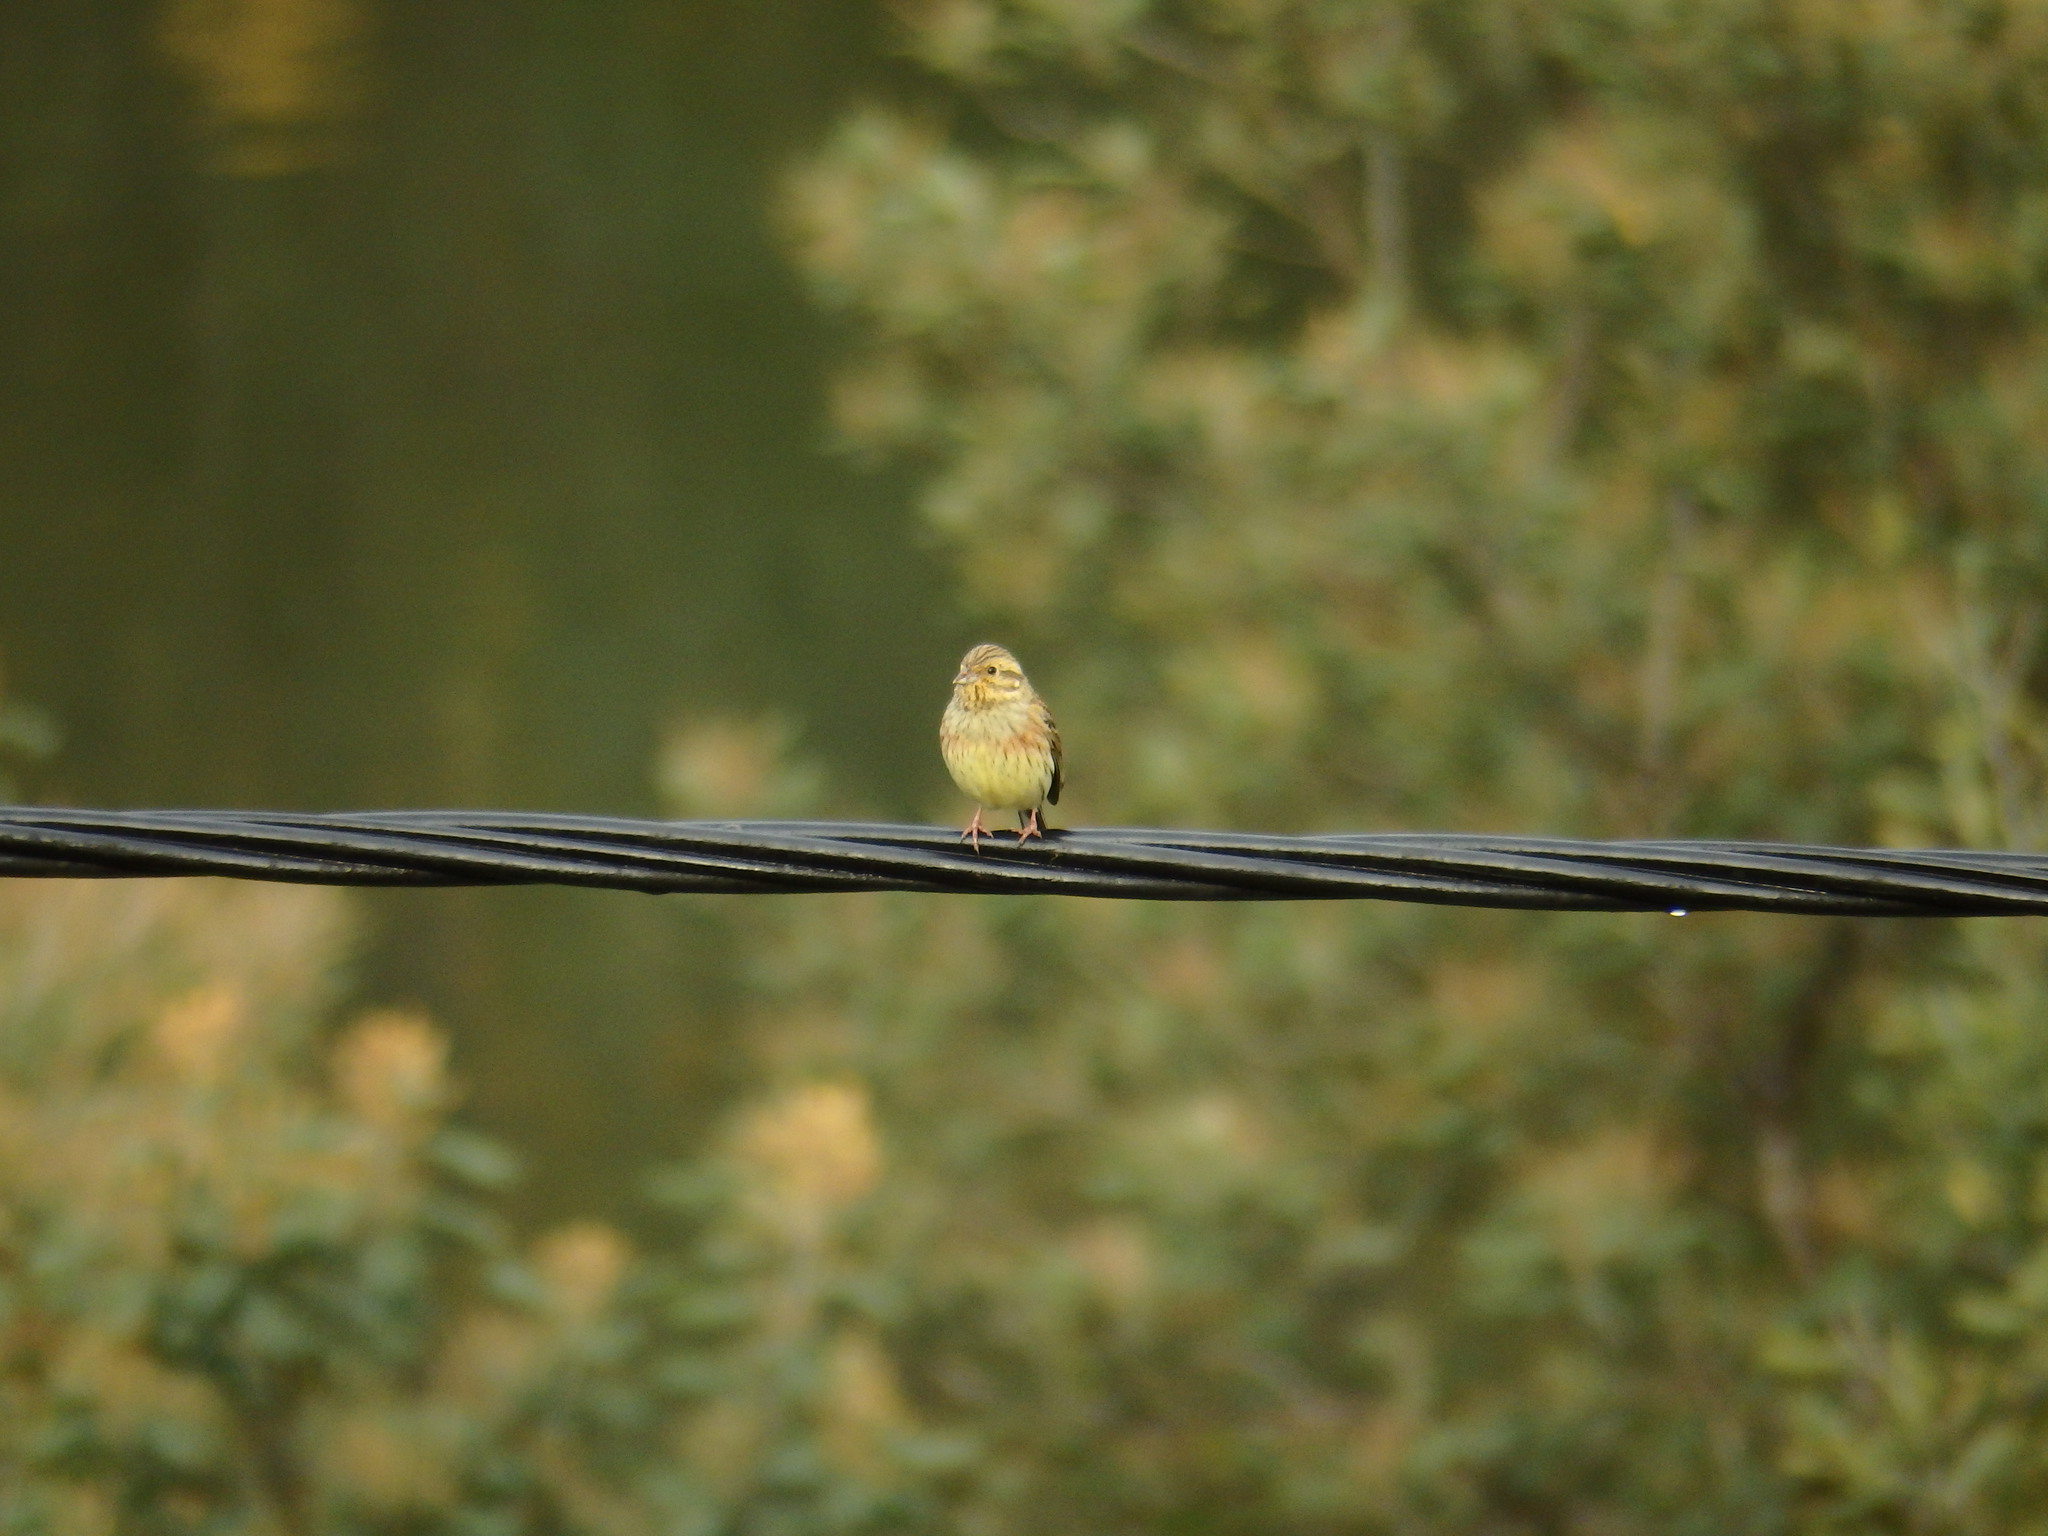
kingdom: Animalia
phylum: Chordata
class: Aves
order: Passeriformes
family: Emberizidae
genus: Emberiza
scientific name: Emberiza cirlus
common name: Cirl bunting
